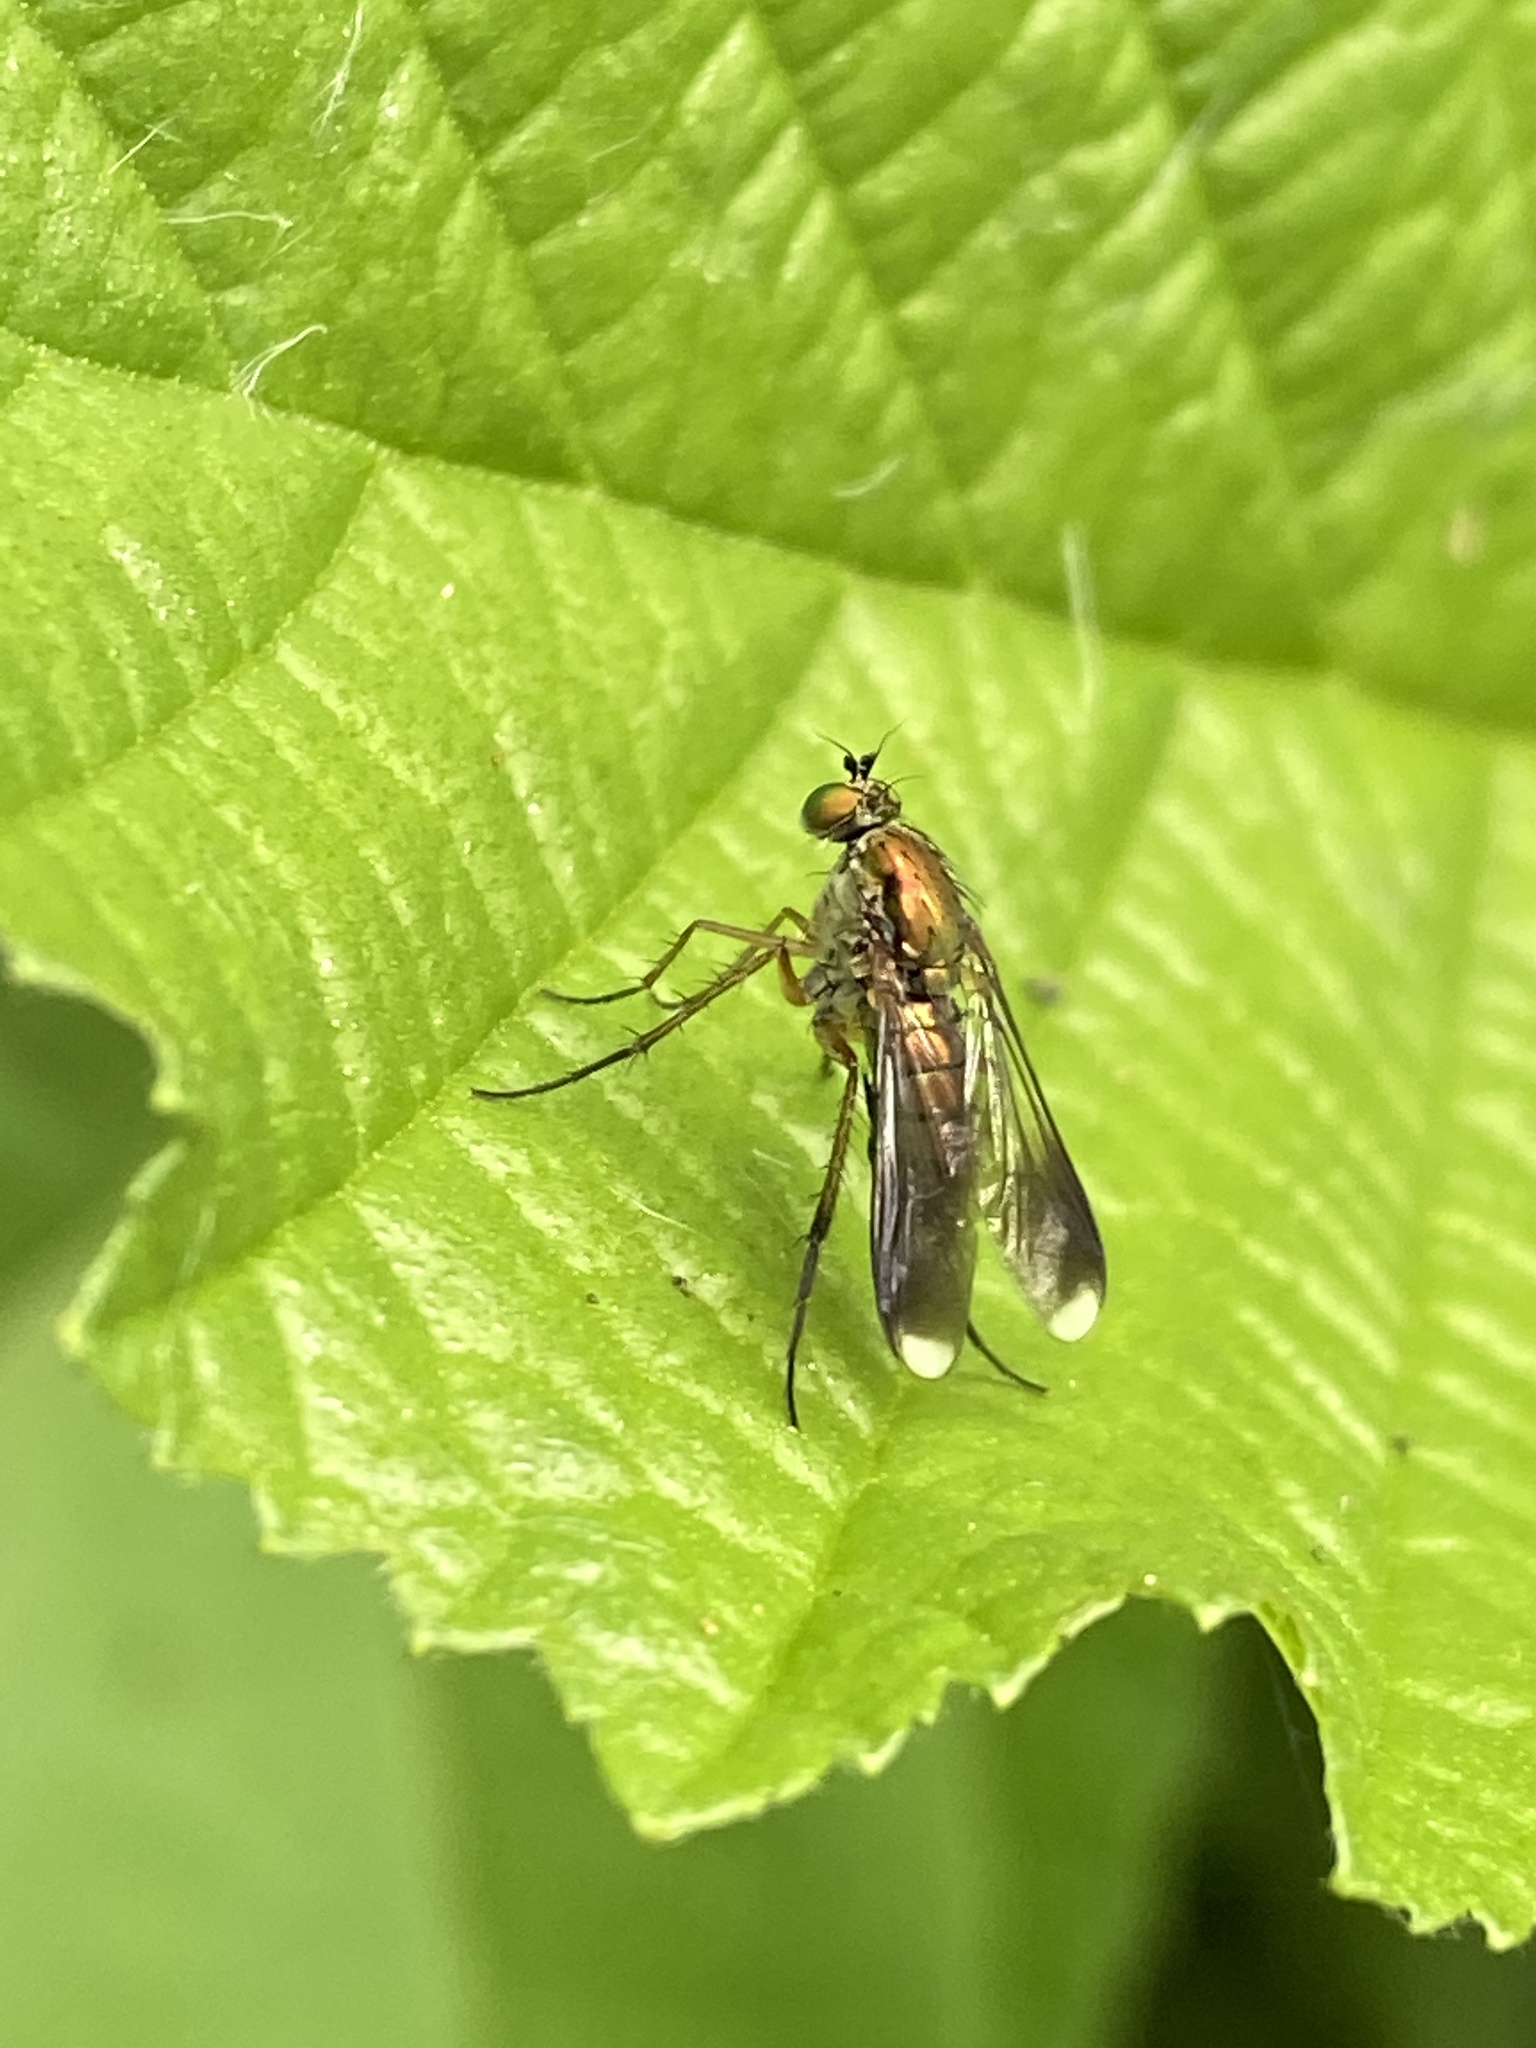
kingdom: Animalia
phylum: Arthropoda
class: Insecta
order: Diptera
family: Dolichopodidae
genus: Poecilobothrus
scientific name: Poecilobothrus nobilitatus
